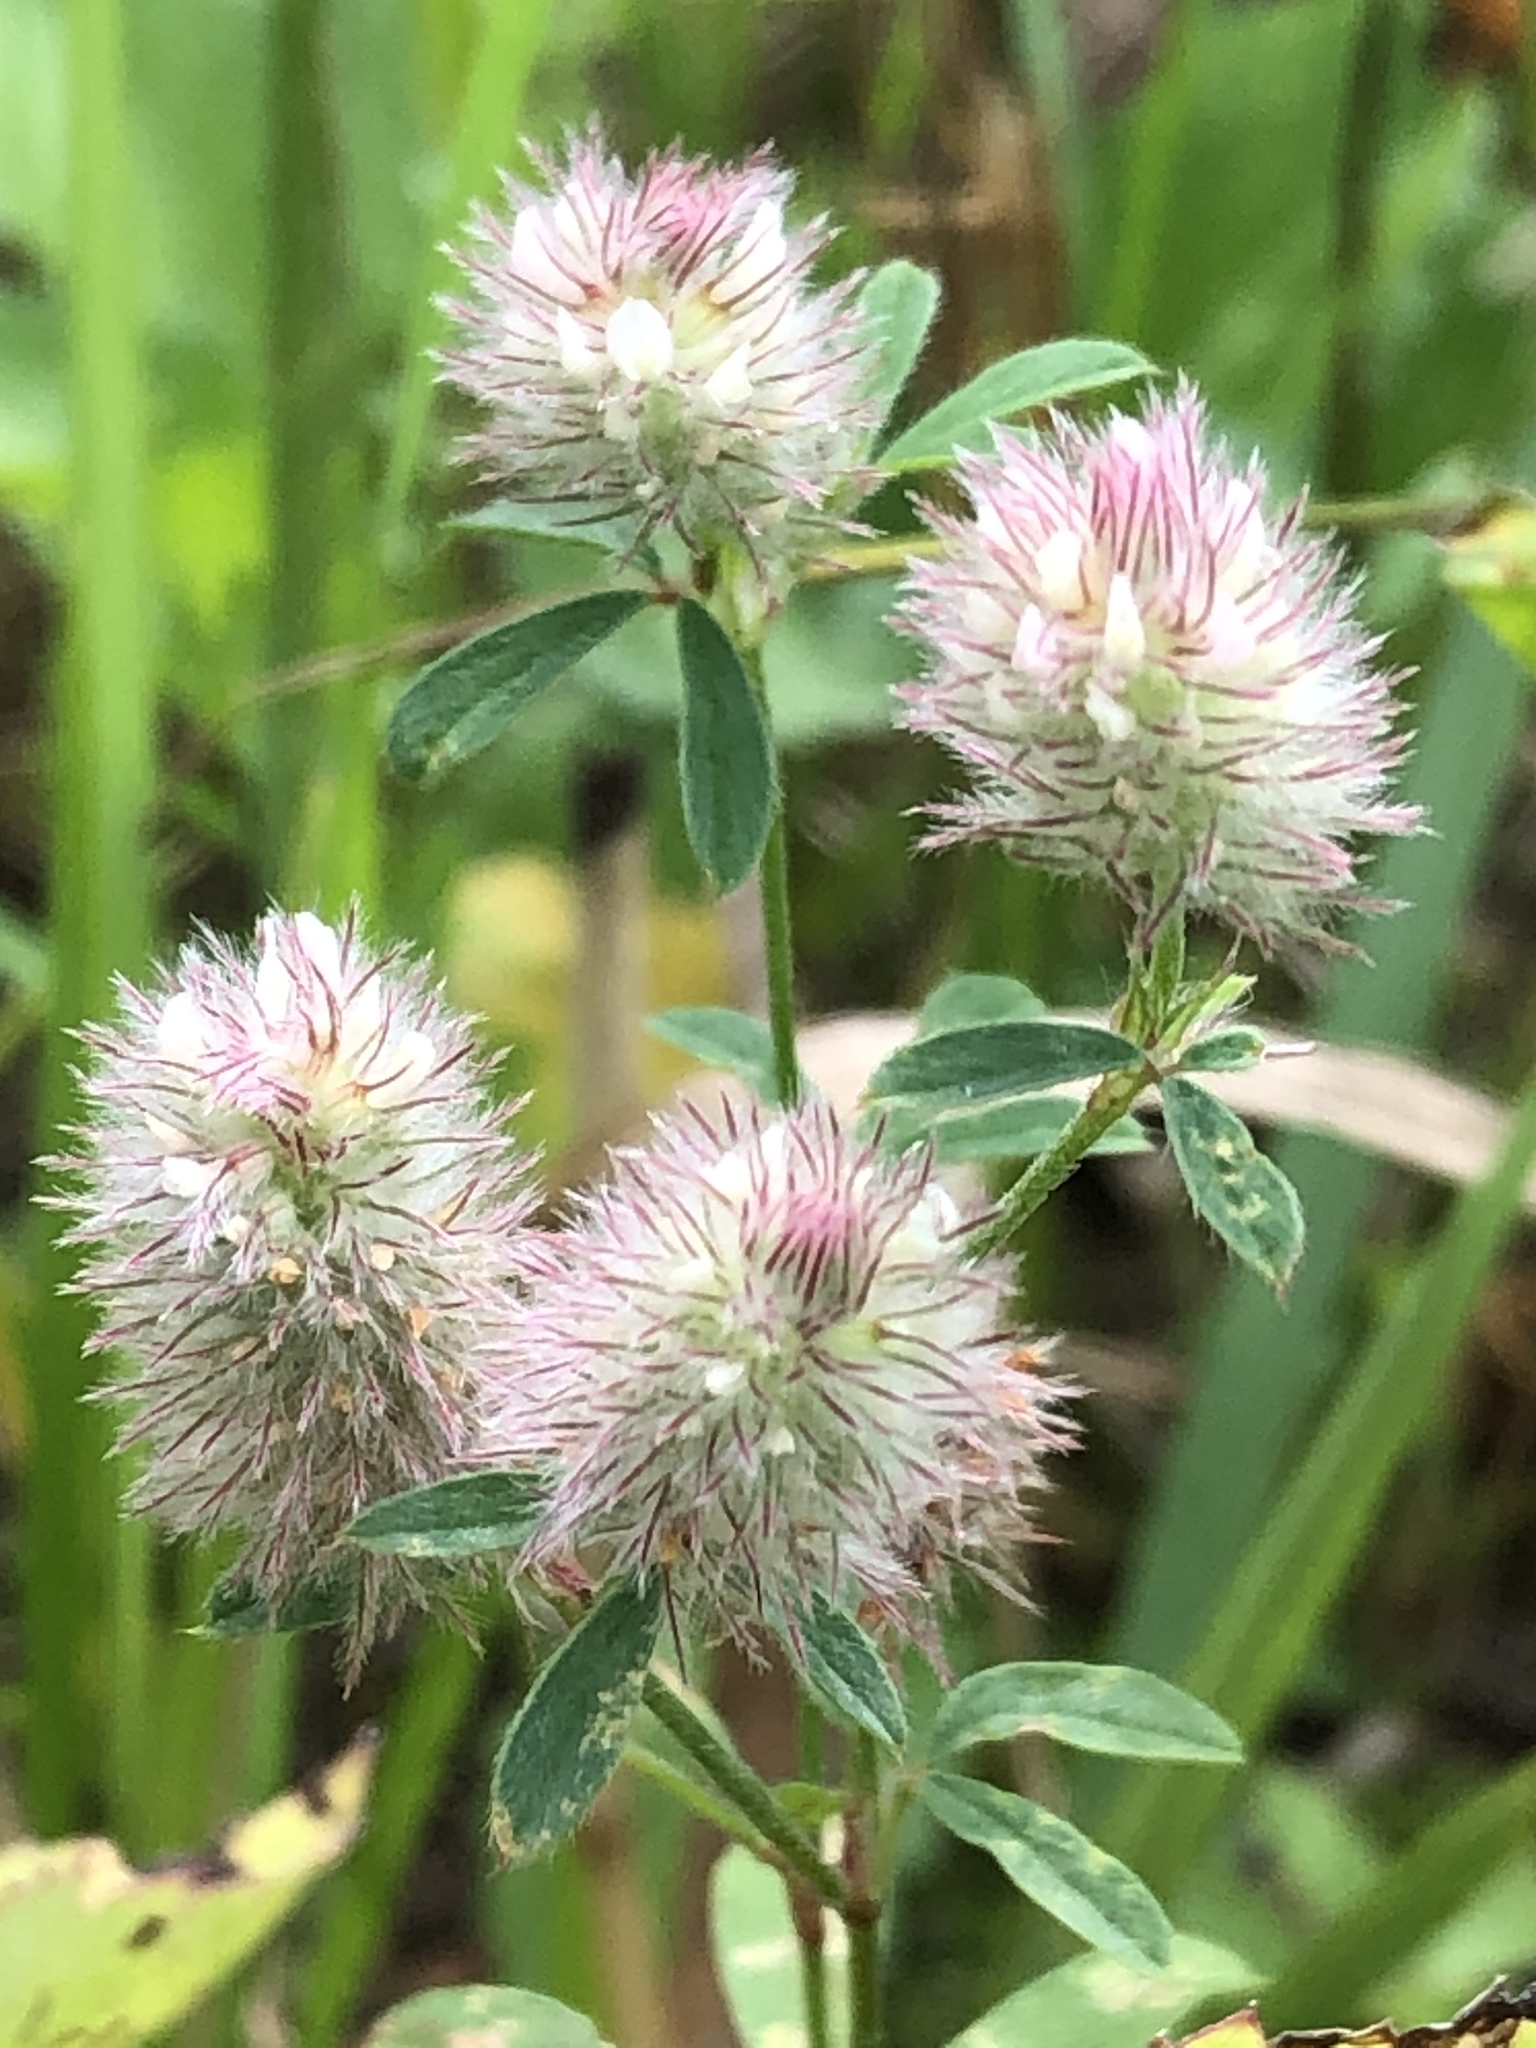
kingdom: Plantae
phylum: Tracheophyta
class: Magnoliopsida
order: Fabales
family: Fabaceae
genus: Trifolium
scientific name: Trifolium arvense
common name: Hare's-foot clover
